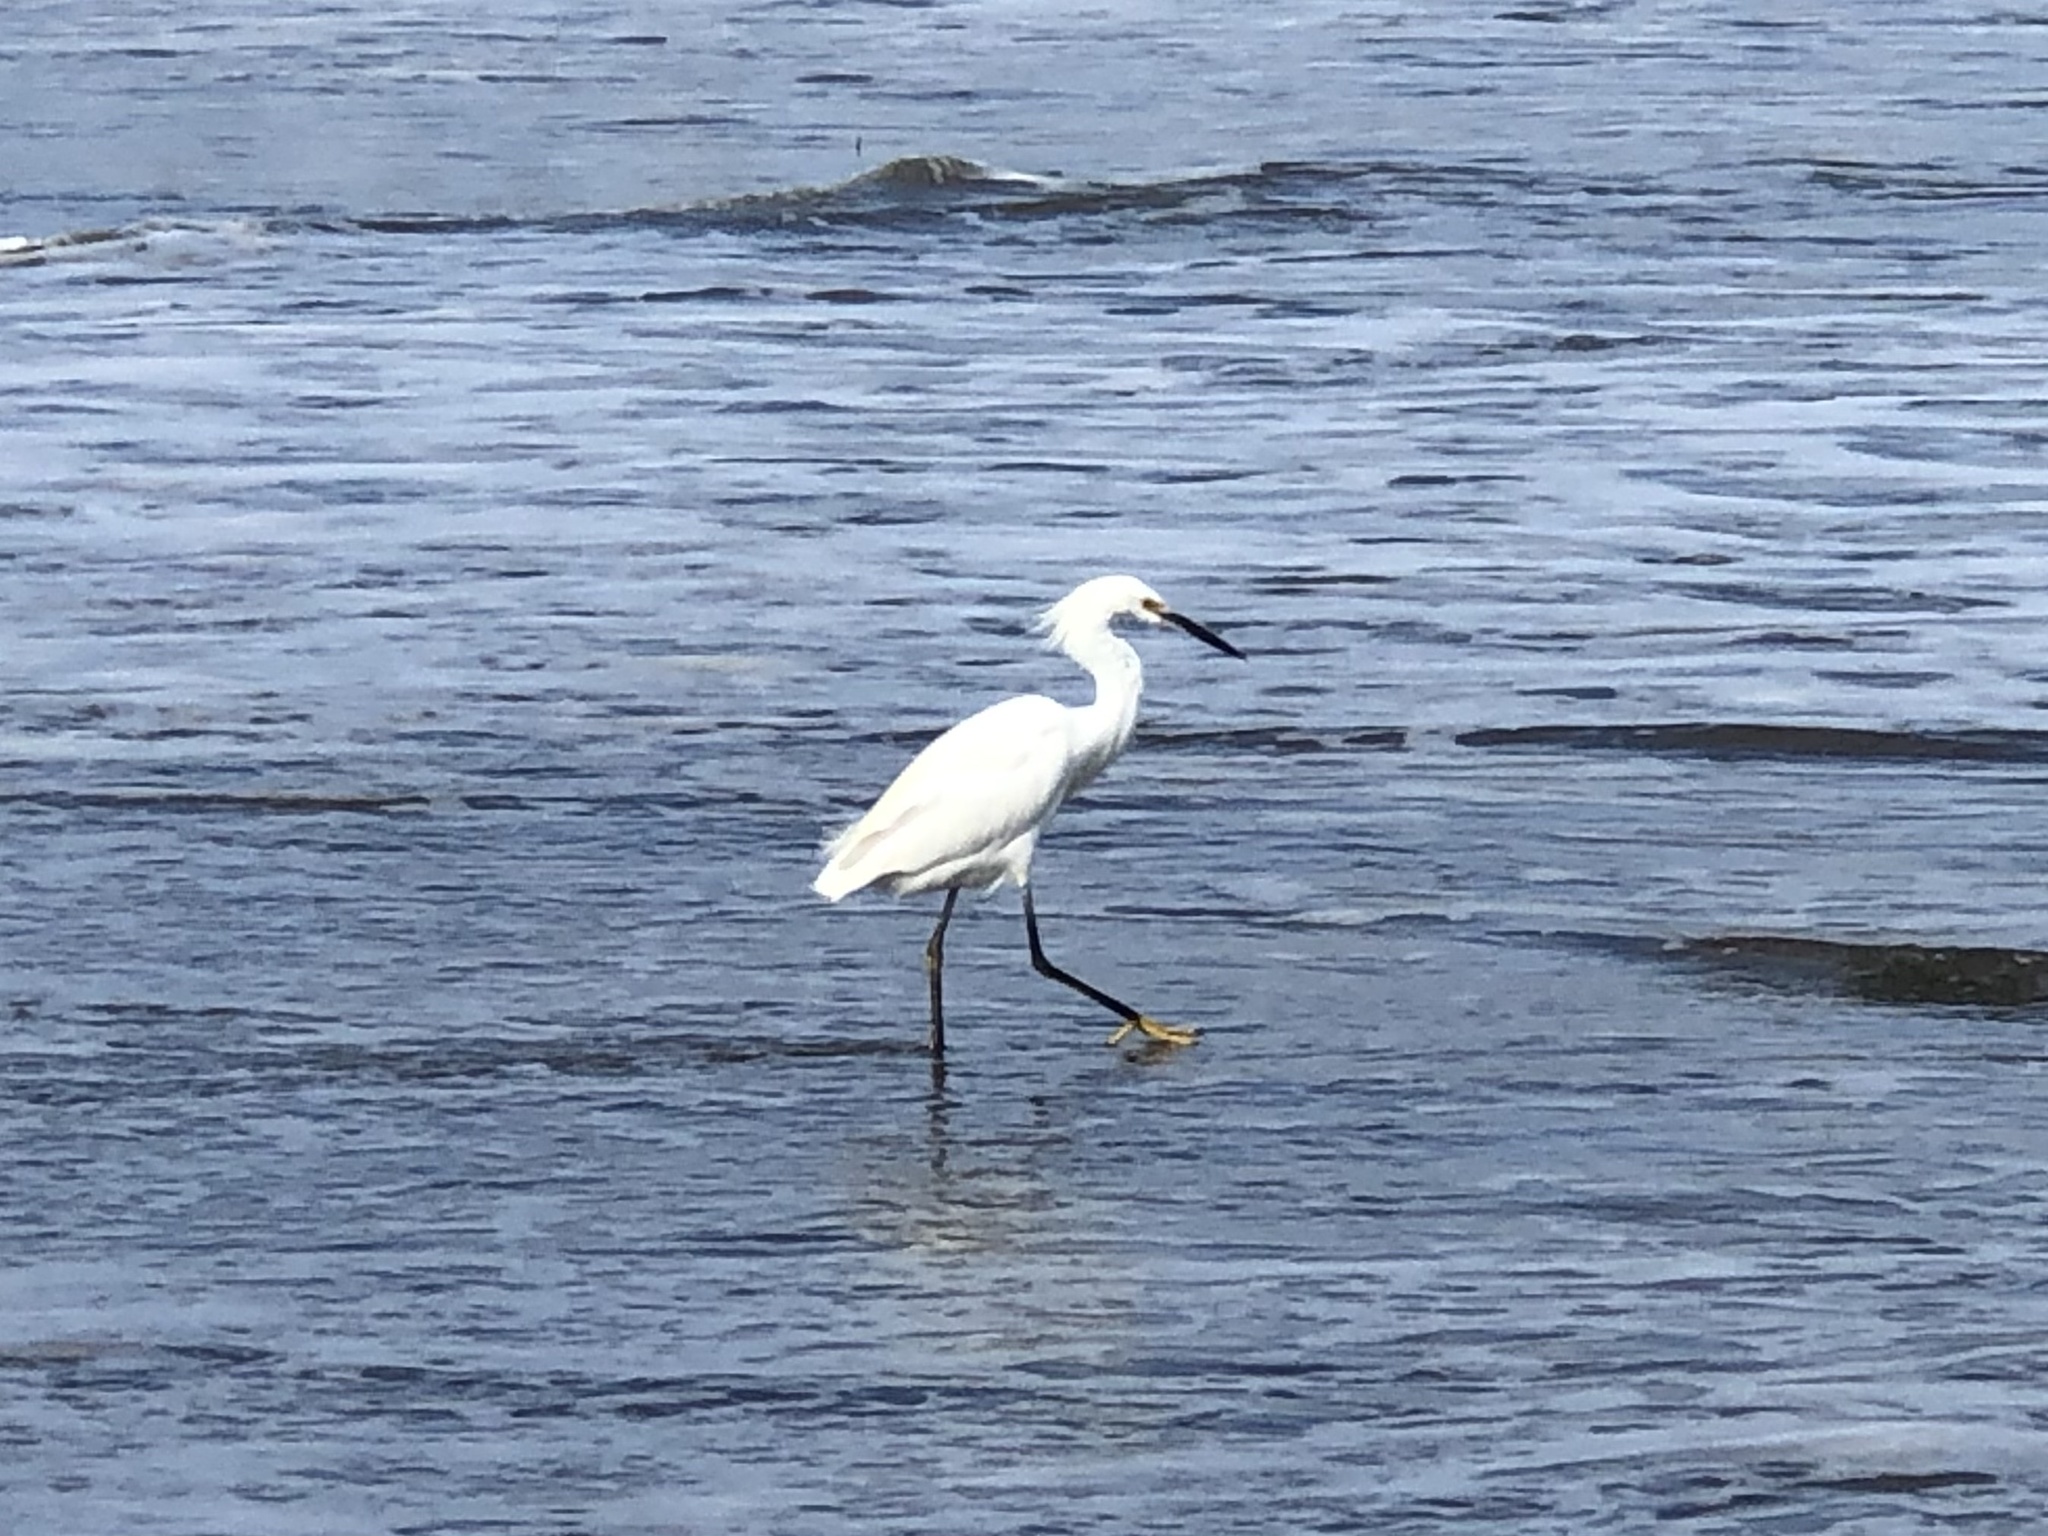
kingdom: Animalia
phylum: Chordata
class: Aves
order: Pelecaniformes
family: Ardeidae
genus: Egretta
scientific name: Egretta thula
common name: Snowy egret
